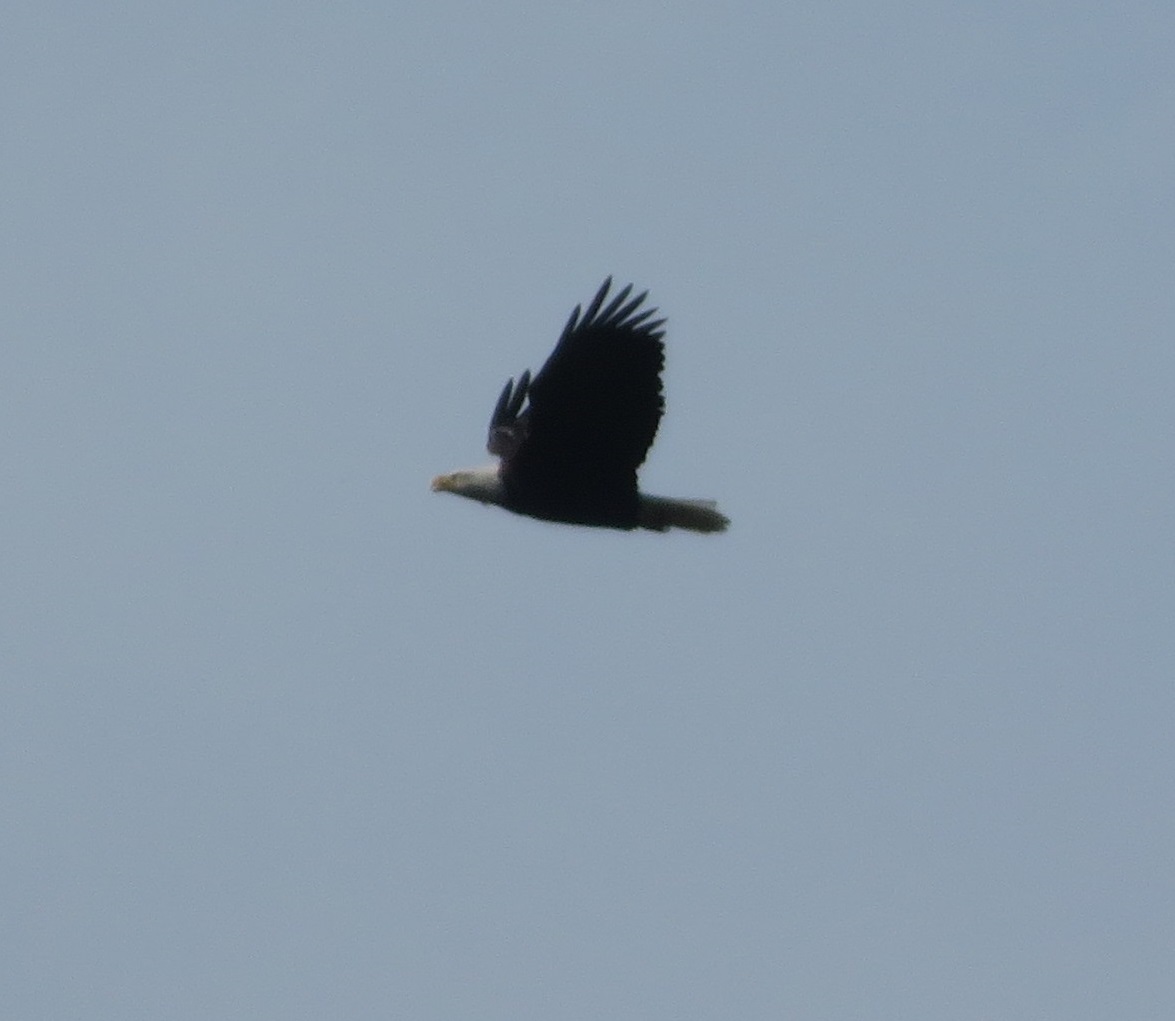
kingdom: Animalia
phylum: Chordata
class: Aves
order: Accipitriformes
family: Accipitridae
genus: Haliaeetus
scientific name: Haliaeetus leucocephalus
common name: Bald eagle
